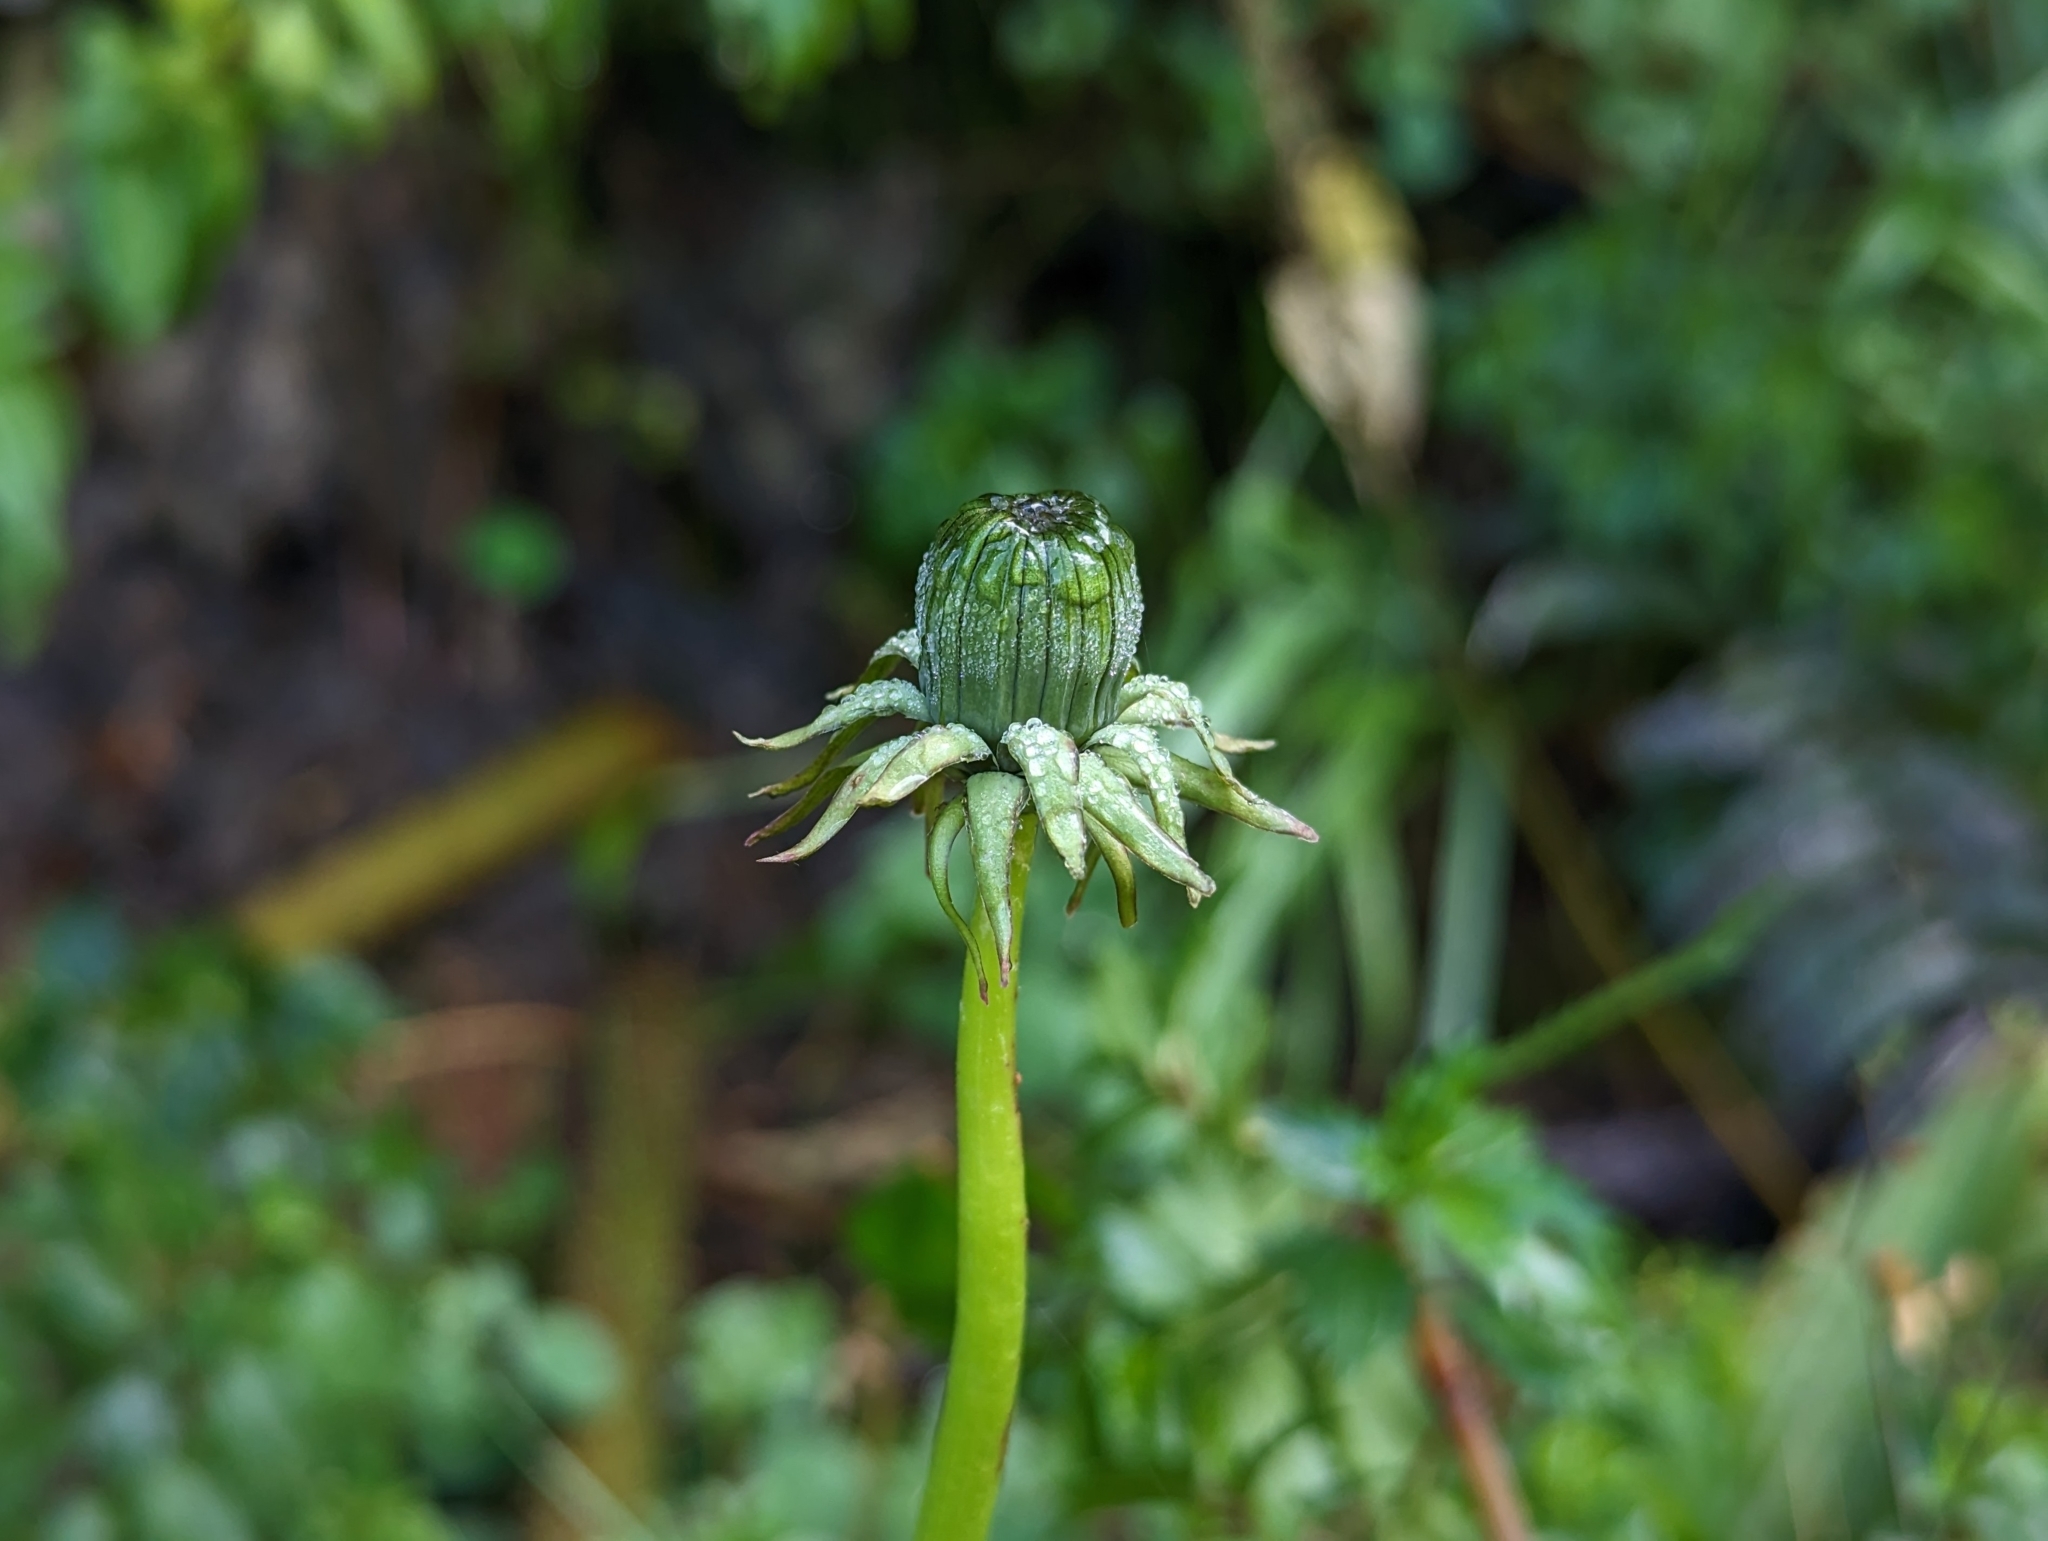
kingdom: Plantae
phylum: Tracheophyta
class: Magnoliopsida
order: Asterales
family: Asteraceae
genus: Taraxacum
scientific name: Taraxacum officinale
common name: Common dandelion
